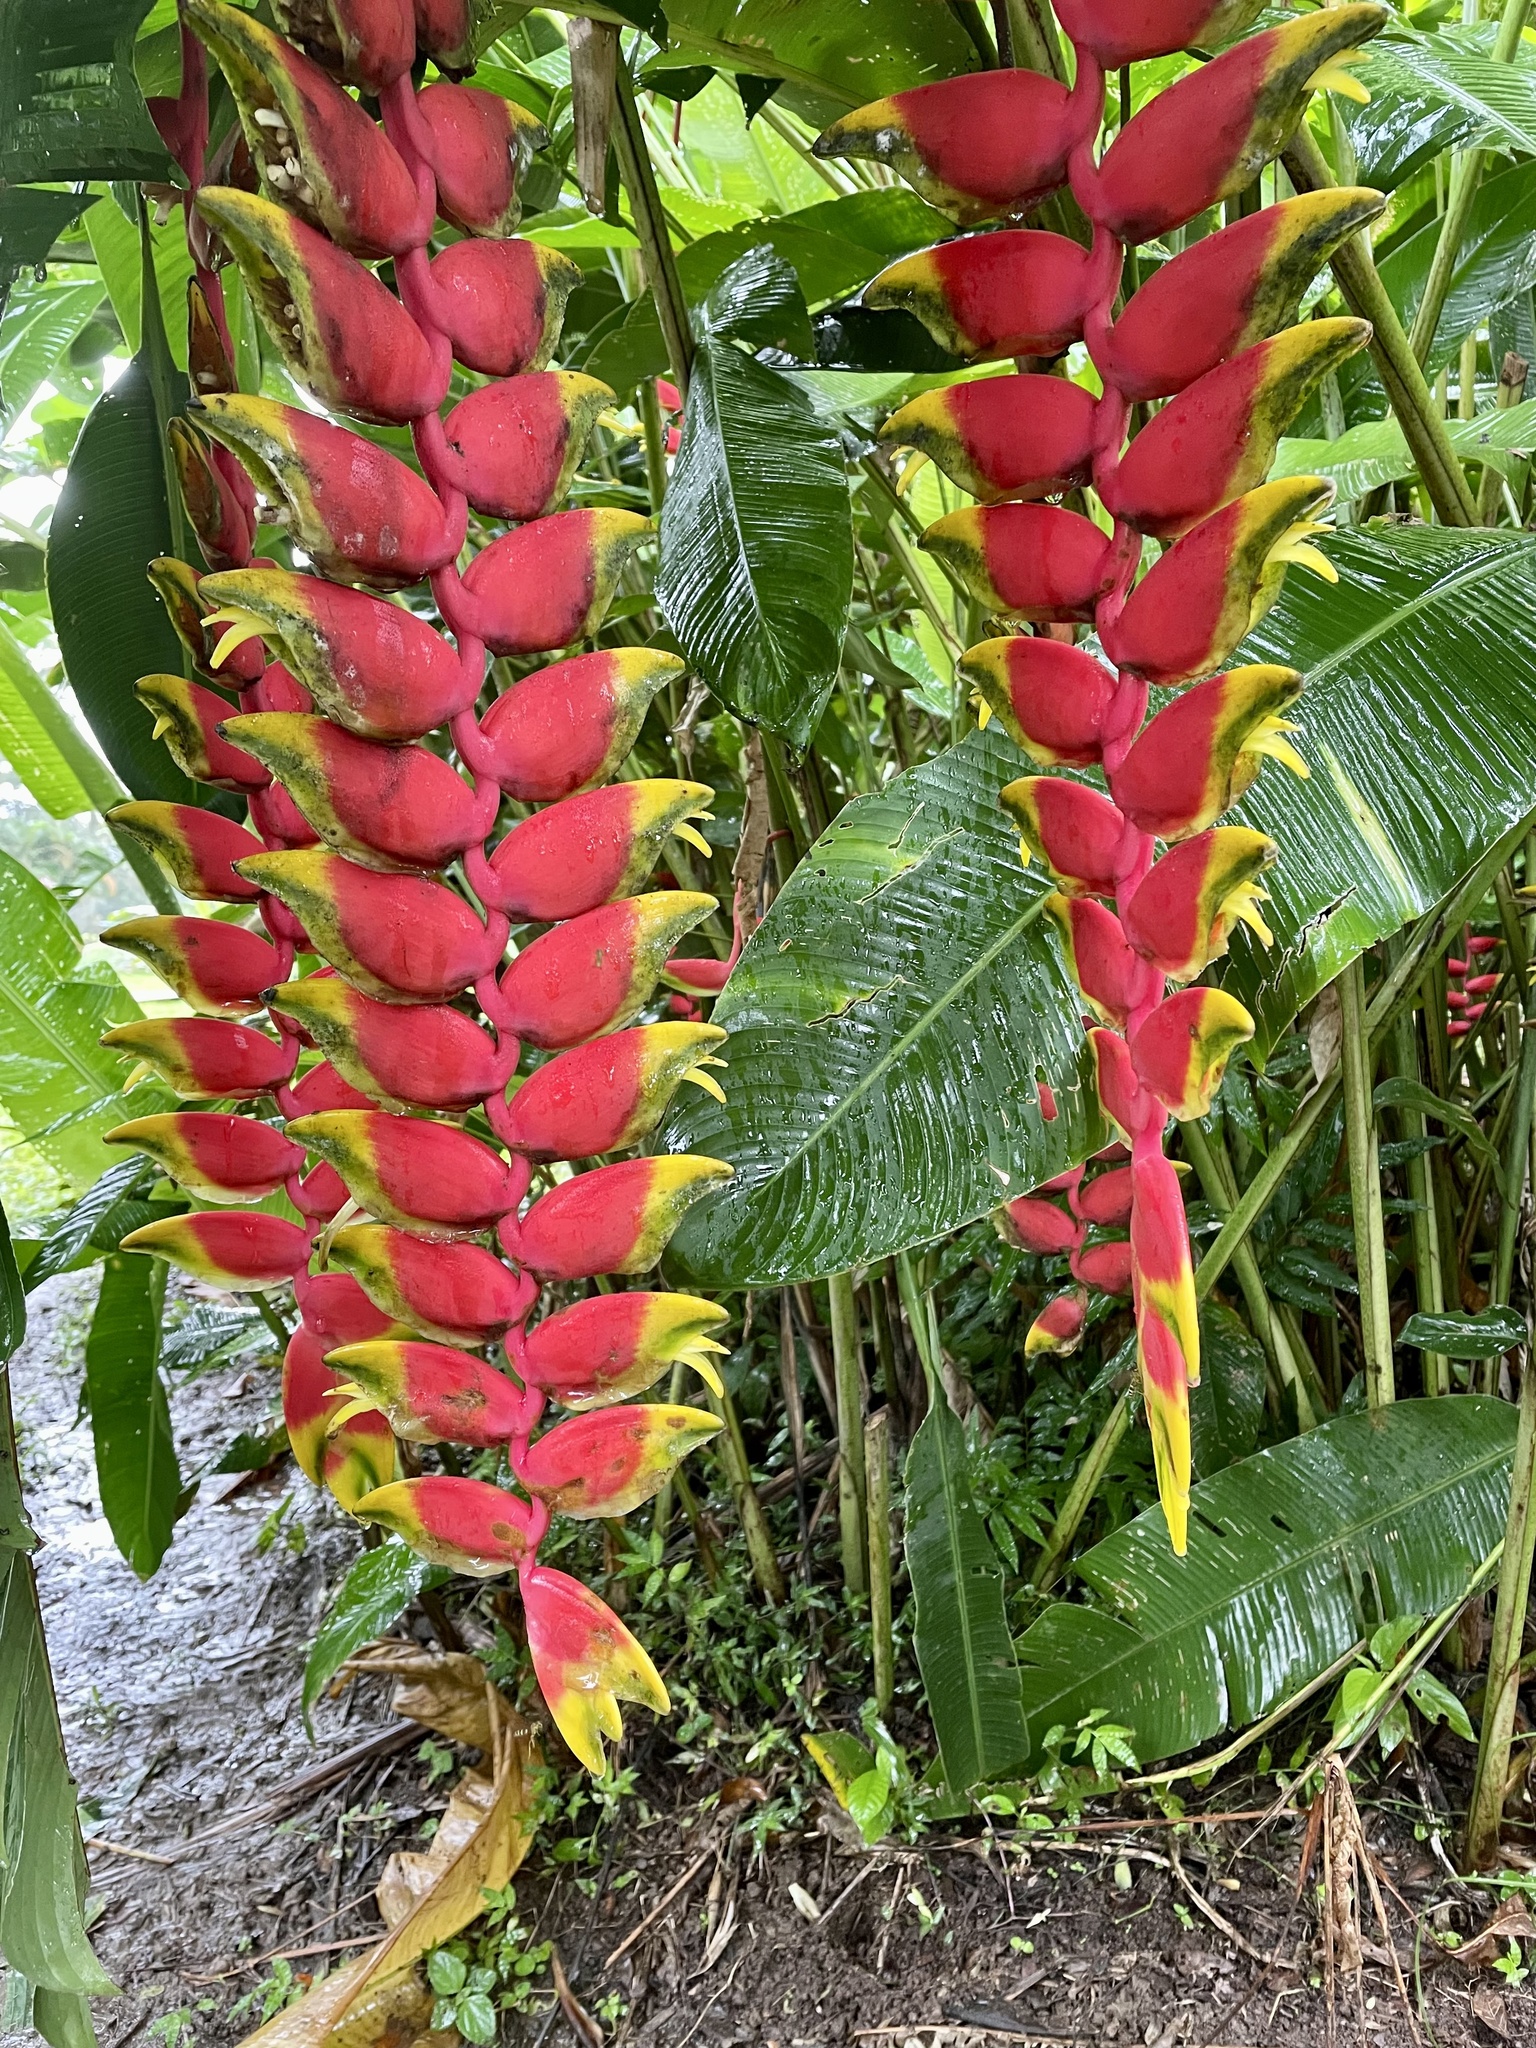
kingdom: Plantae
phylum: Tracheophyta
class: Liliopsida
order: Zingiberales
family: Heliconiaceae
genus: Heliconia
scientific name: Heliconia rostrata
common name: False bird of paradise
